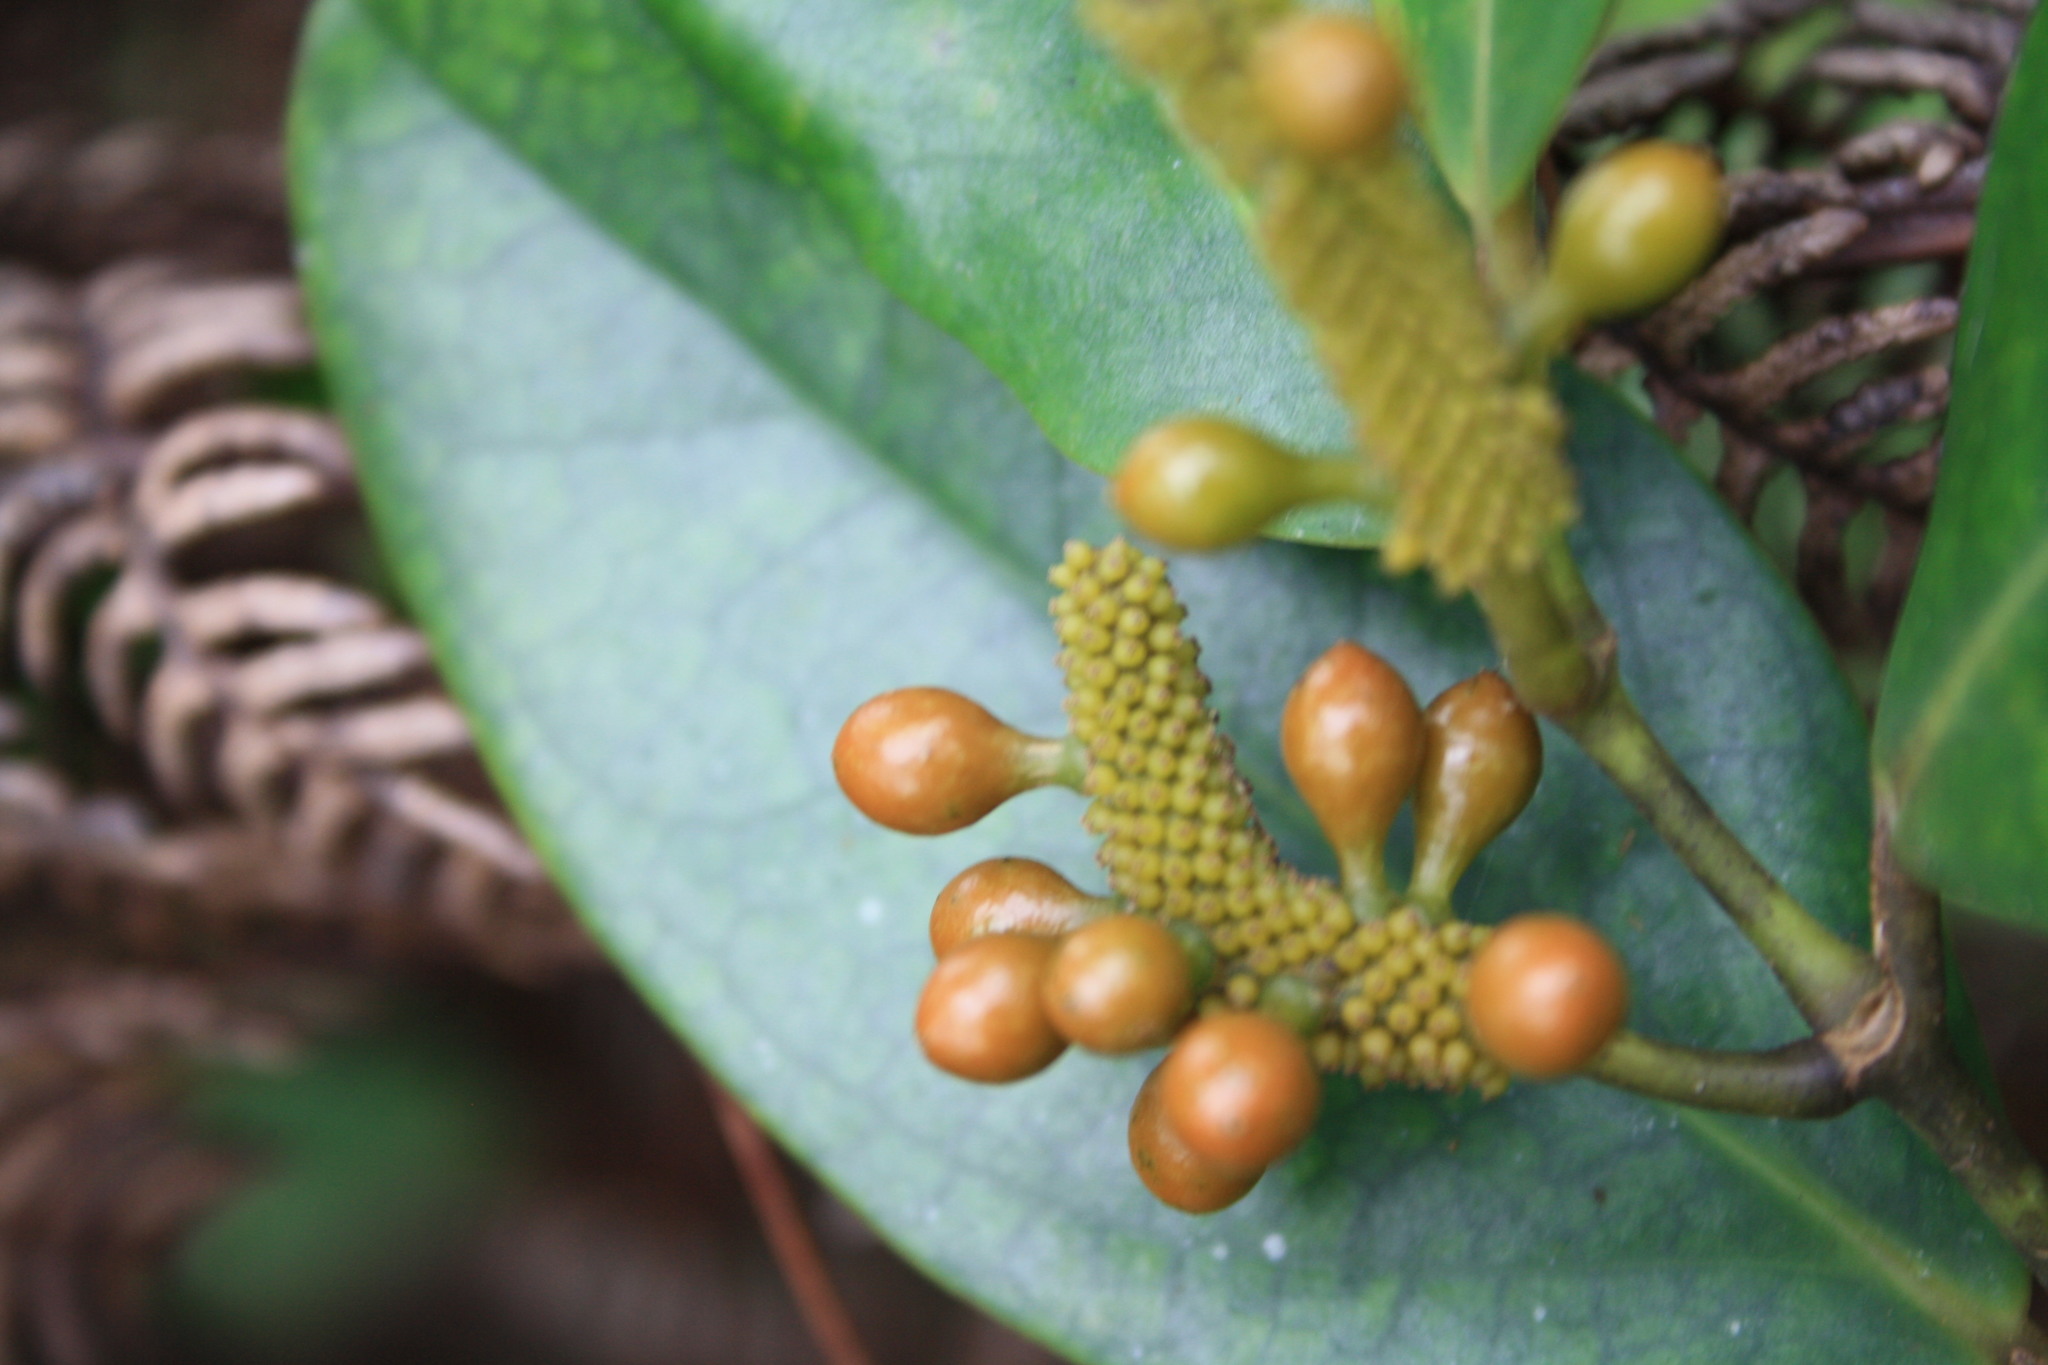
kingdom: Plantae
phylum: Tracheophyta
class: Magnoliopsida
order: Piperales
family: Piperaceae
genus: Piper
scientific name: Piper pachyphyllum
